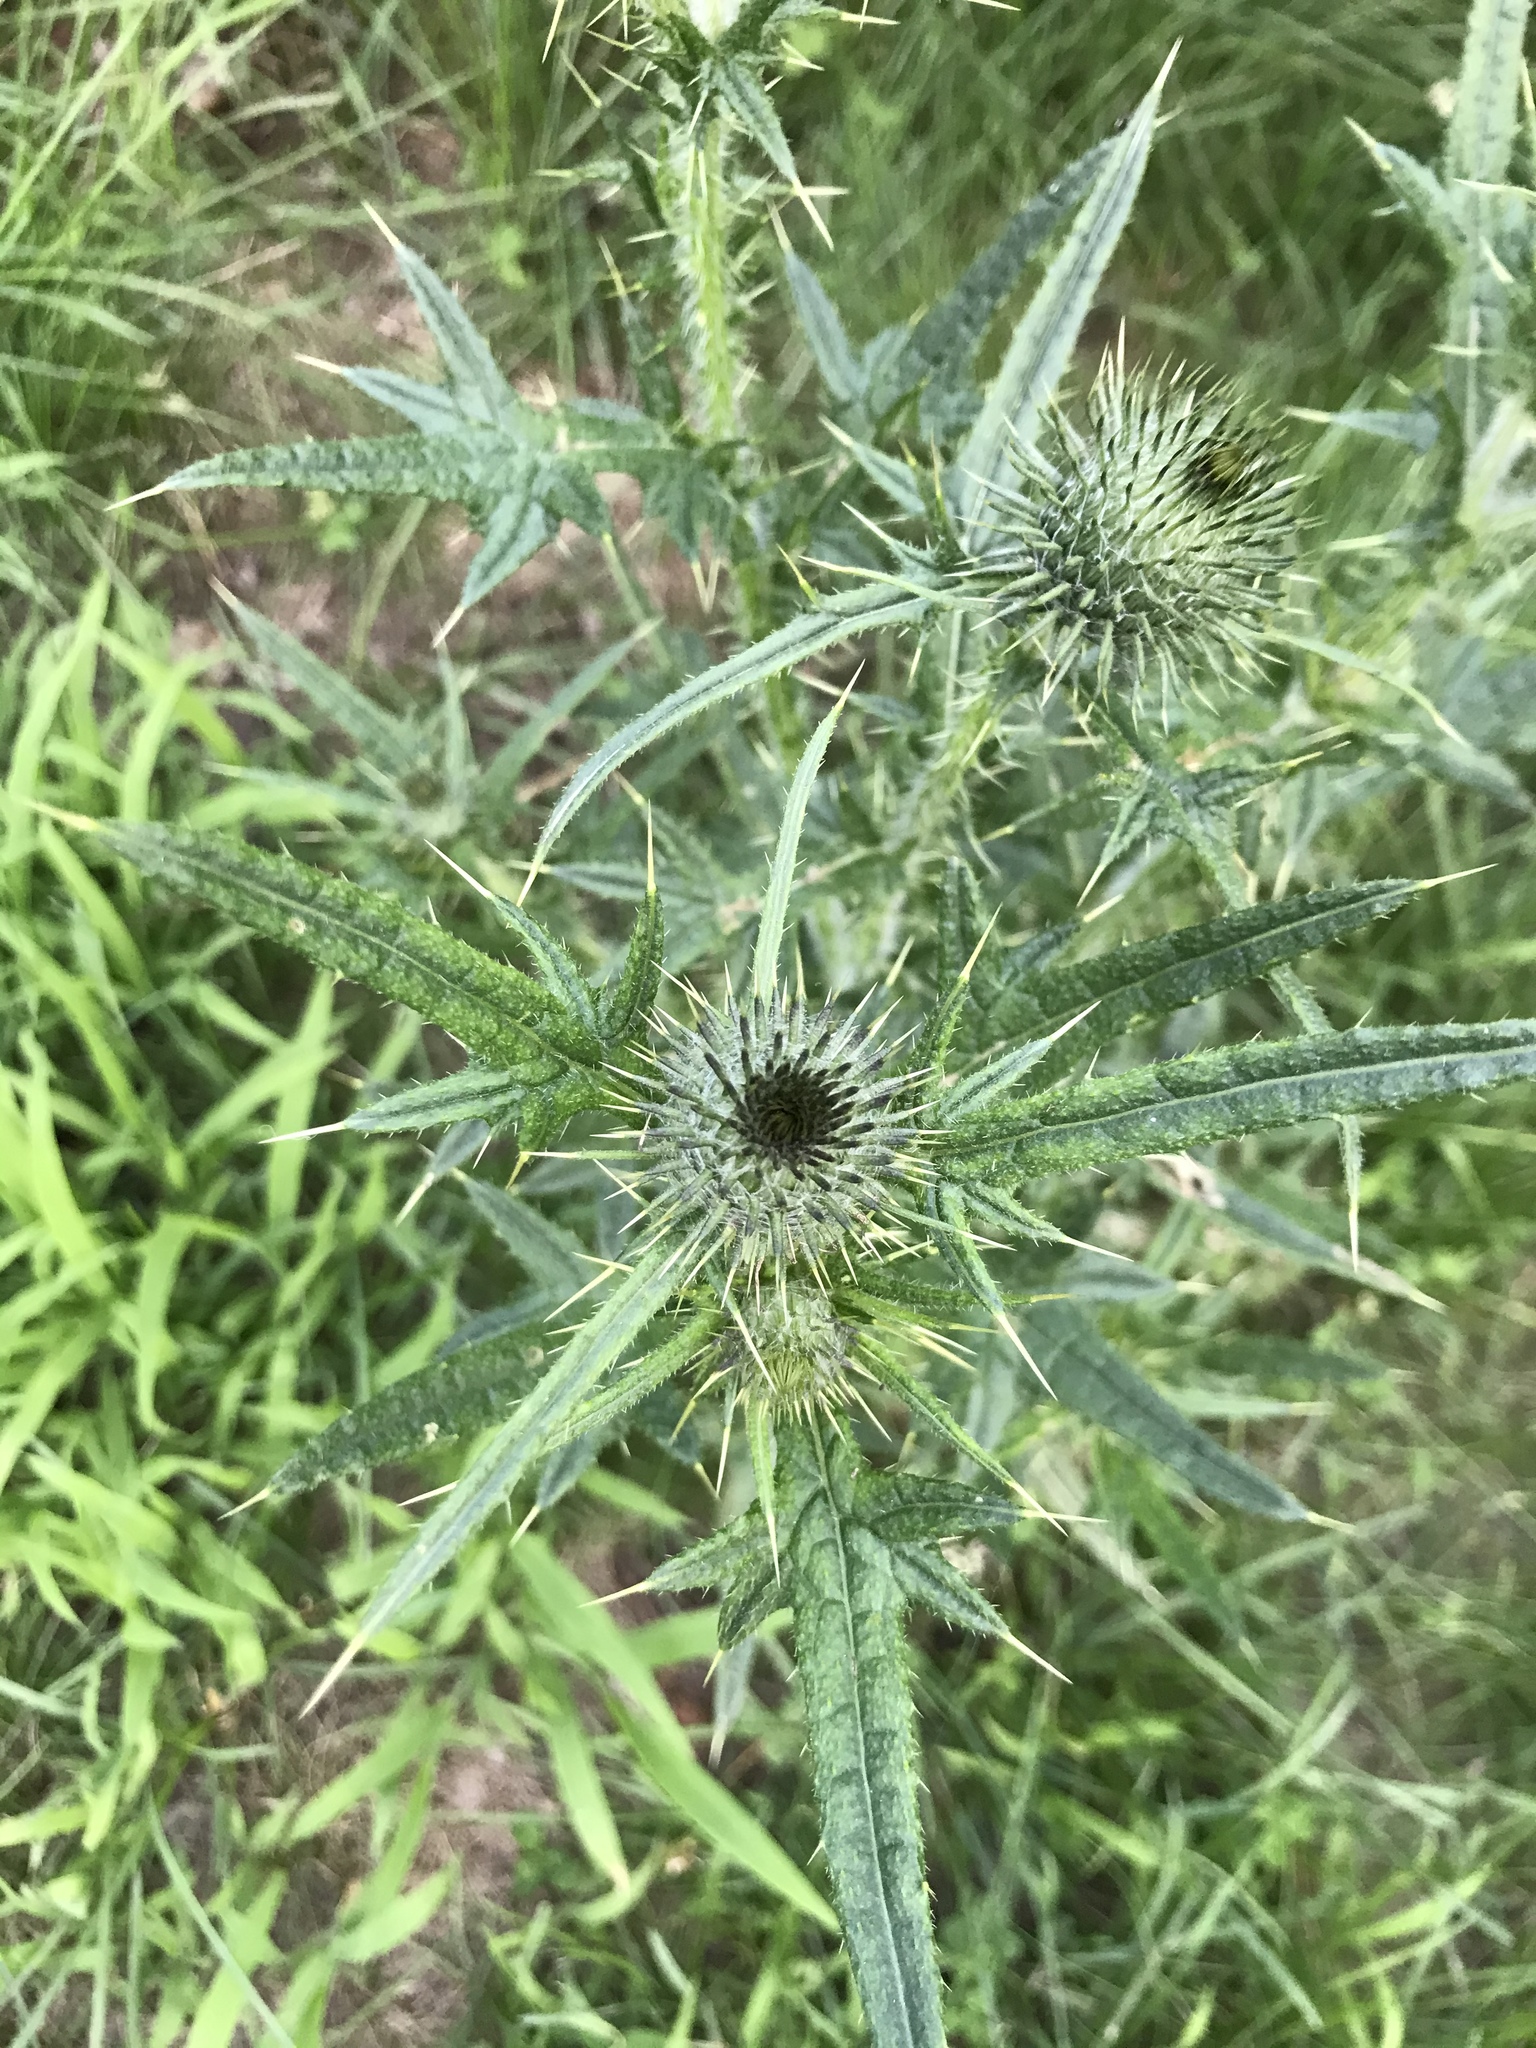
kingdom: Plantae
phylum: Tracheophyta
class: Magnoliopsida
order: Asterales
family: Asteraceae
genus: Cirsium
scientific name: Cirsium vulgare
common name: Bull thistle
